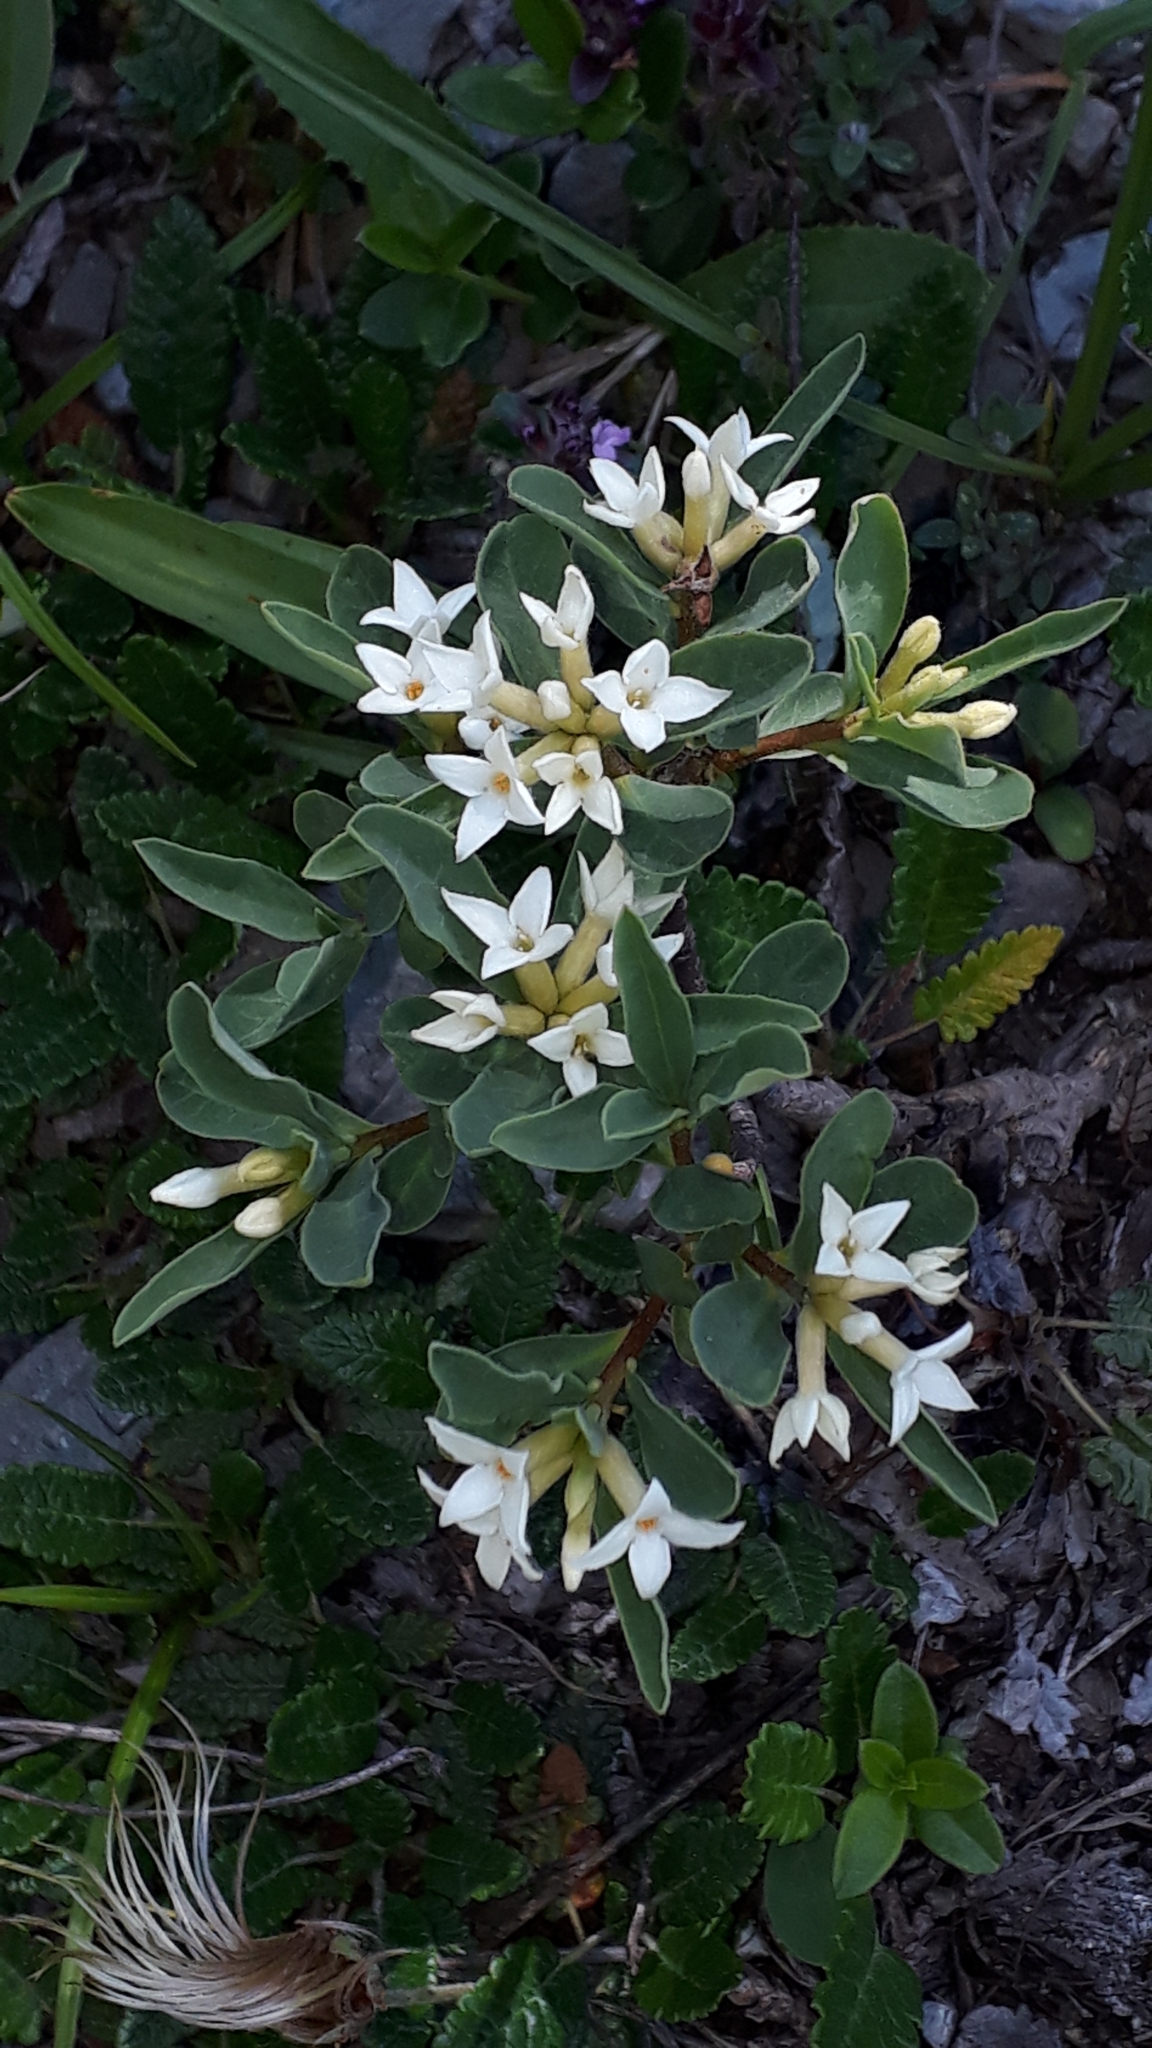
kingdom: Plantae
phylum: Tracheophyta
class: Magnoliopsida
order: Malvales
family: Thymelaeaceae
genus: Daphne
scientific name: Daphne alpina
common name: Alpine daphne
